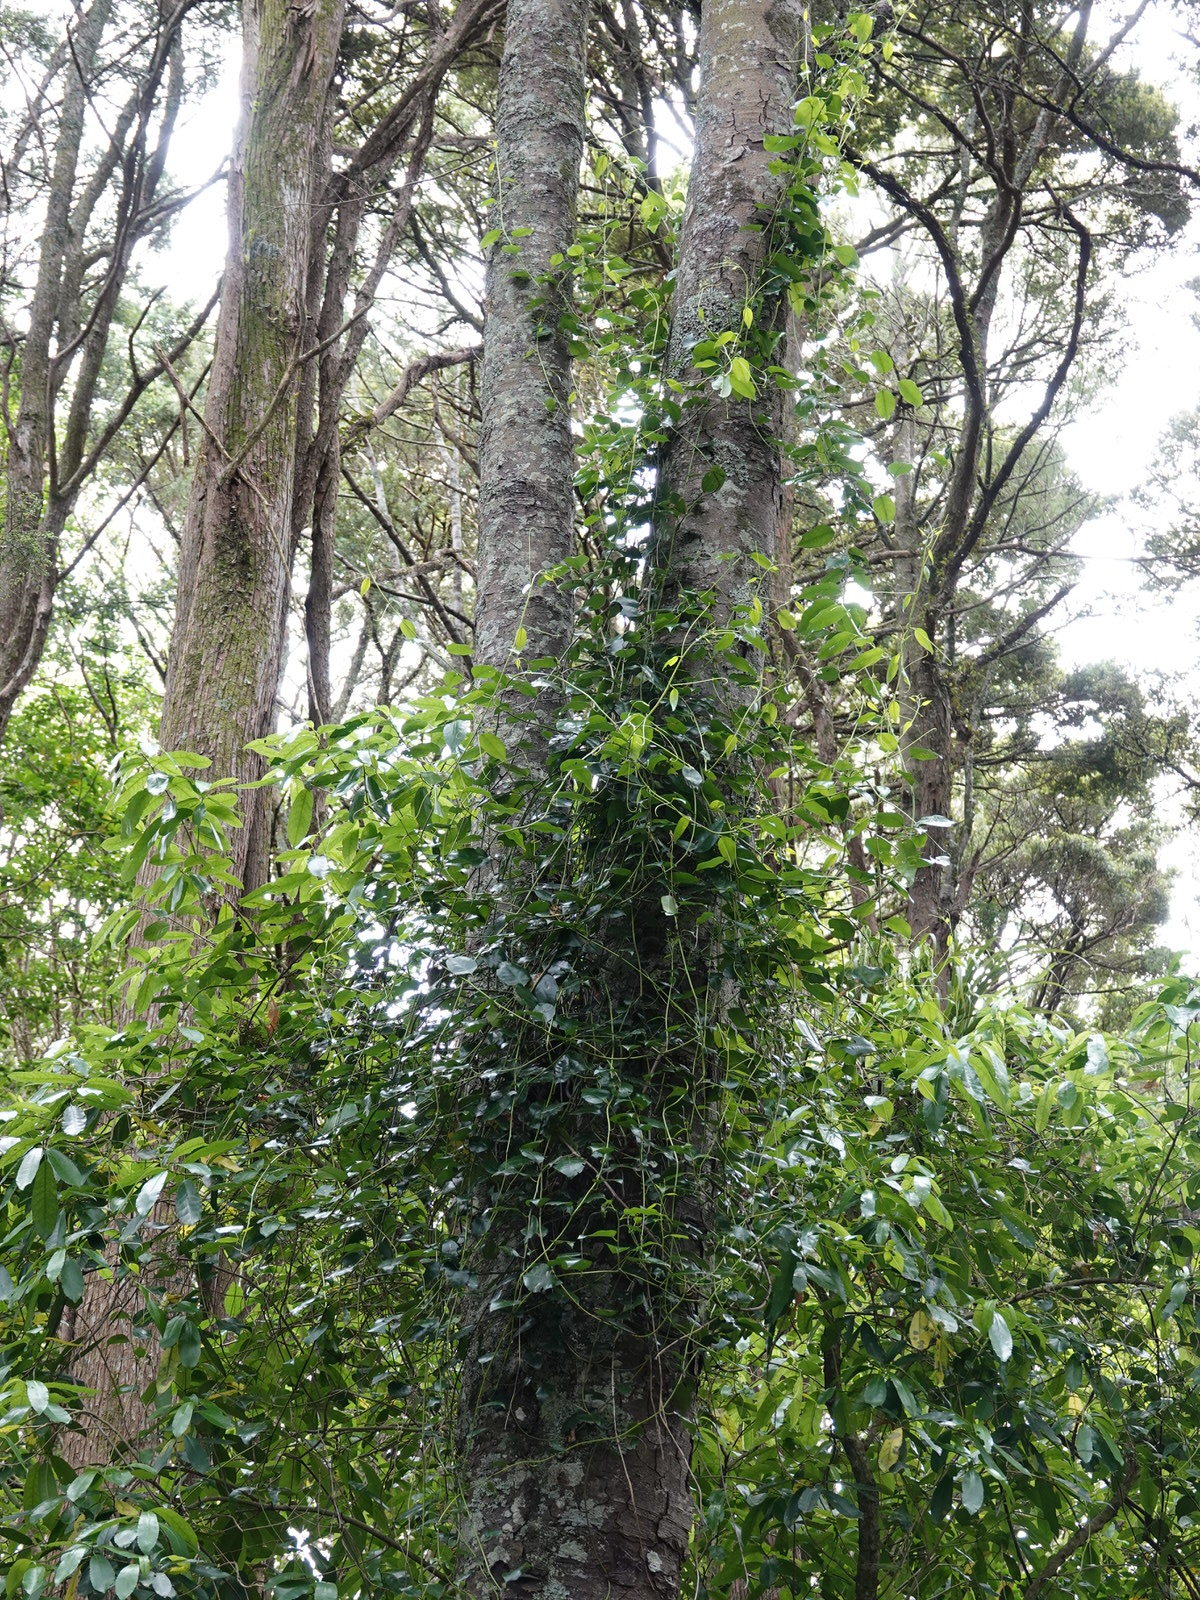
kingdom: Plantae
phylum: Tracheophyta
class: Magnoliopsida
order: Malpighiales
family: Passifloraceae
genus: Passiflora
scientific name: Passiflora tetrandra
